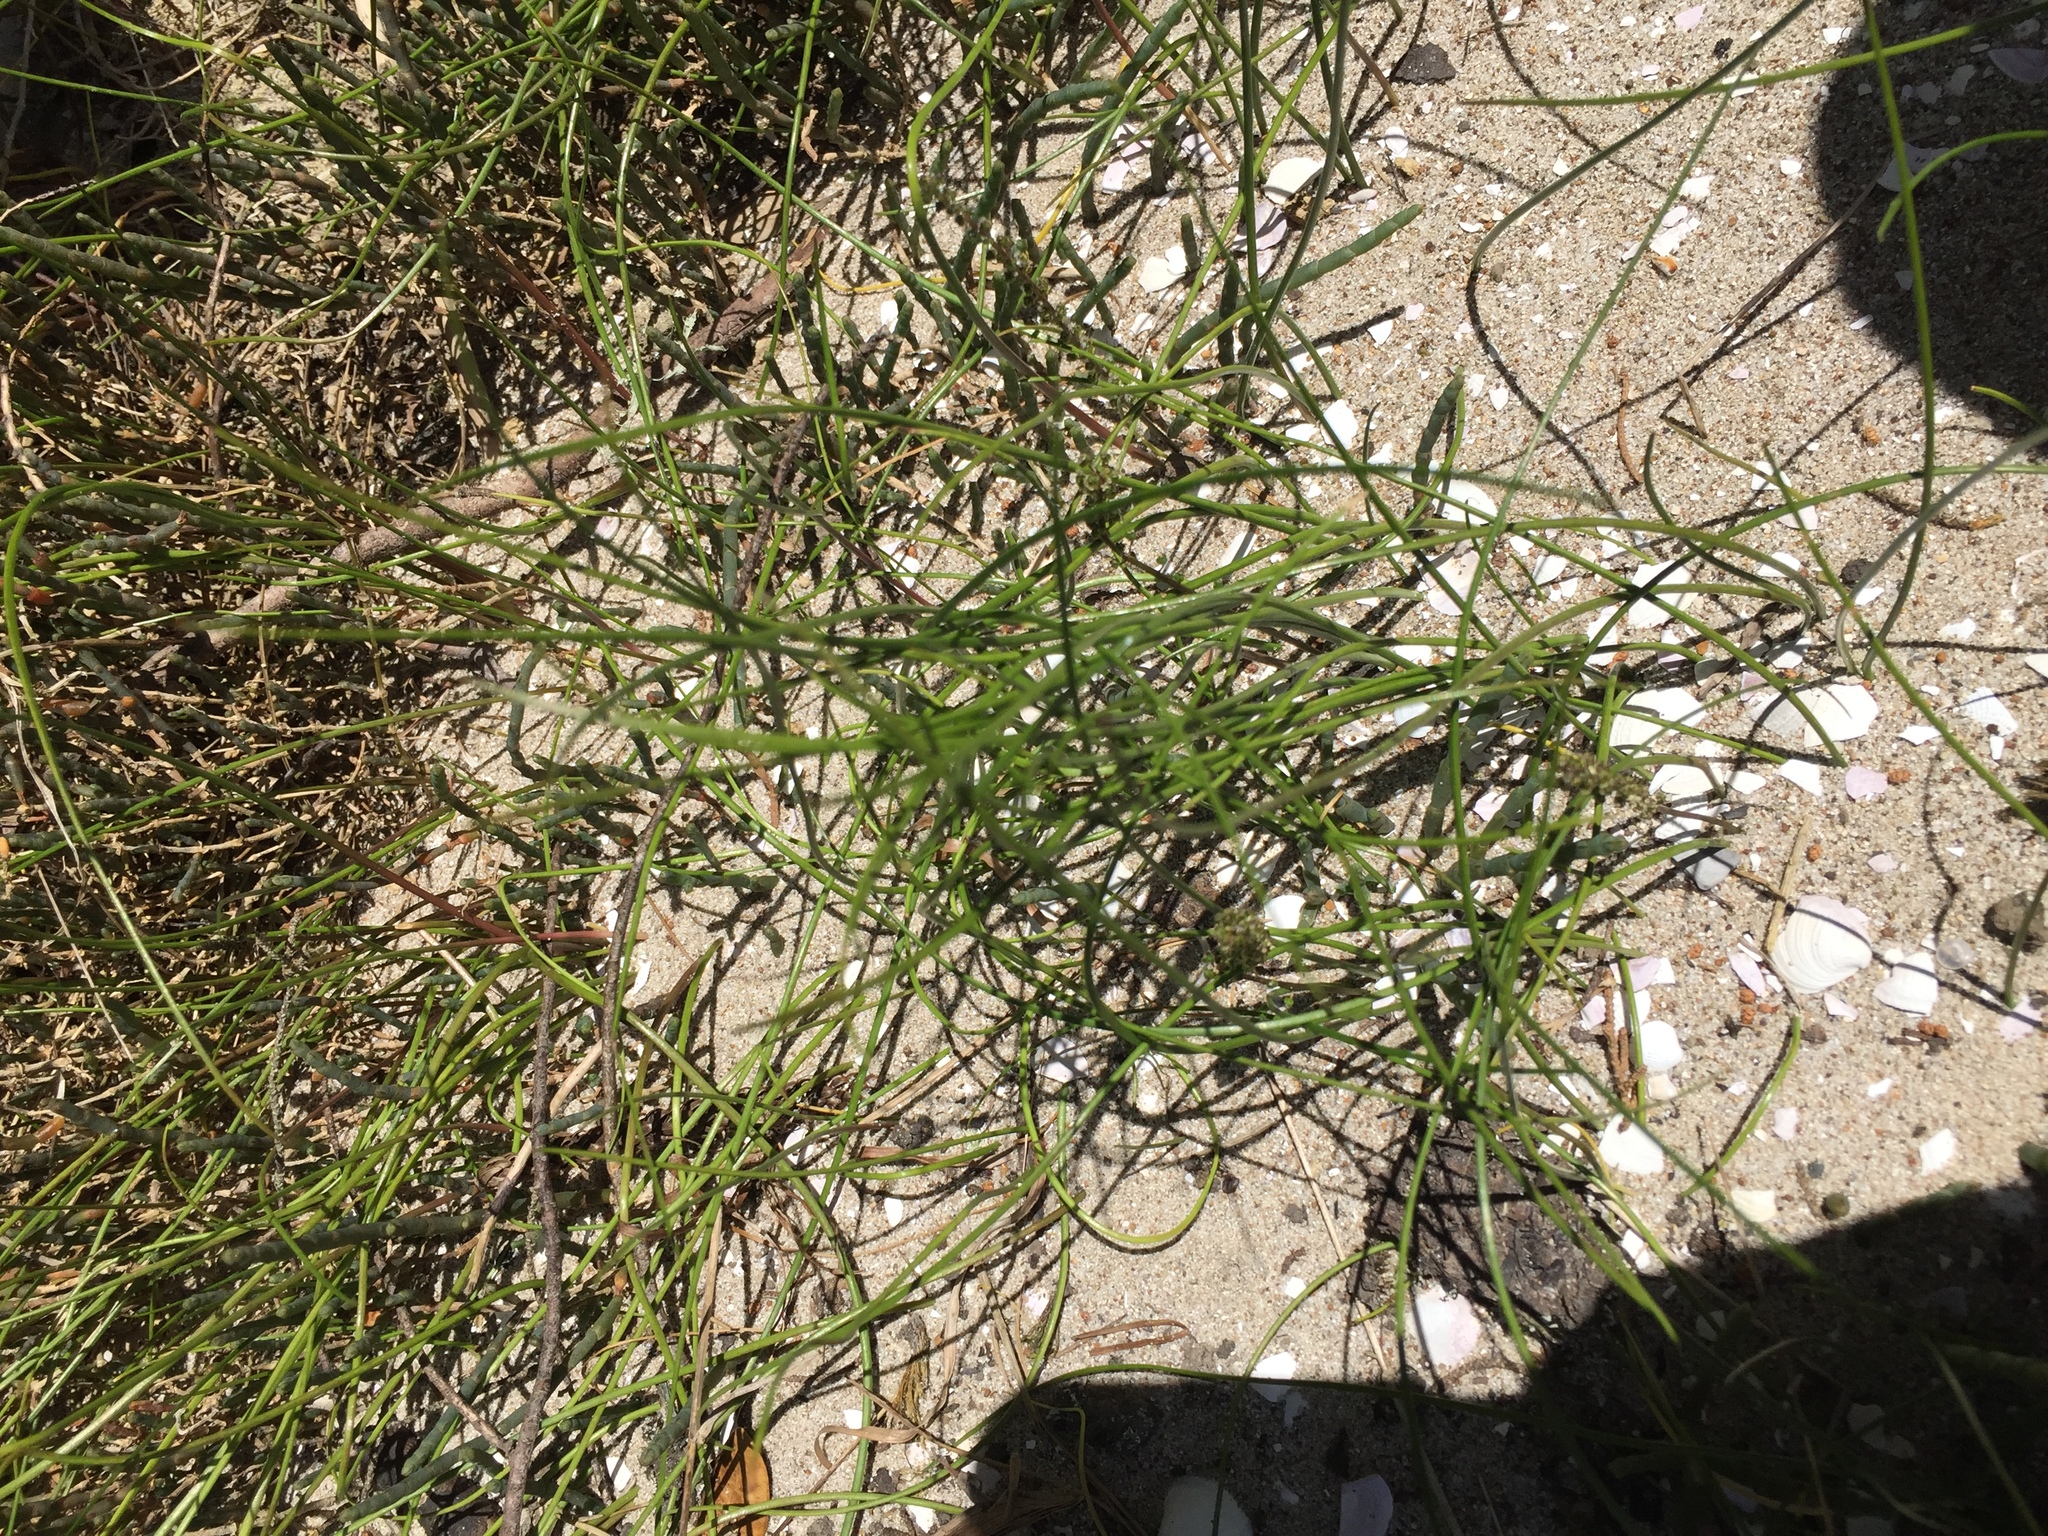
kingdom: Plantae
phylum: Tracheophyta
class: Liliopsida
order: Alismatales
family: Juncaginaceae
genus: Triglochin
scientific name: Triglochin striata
